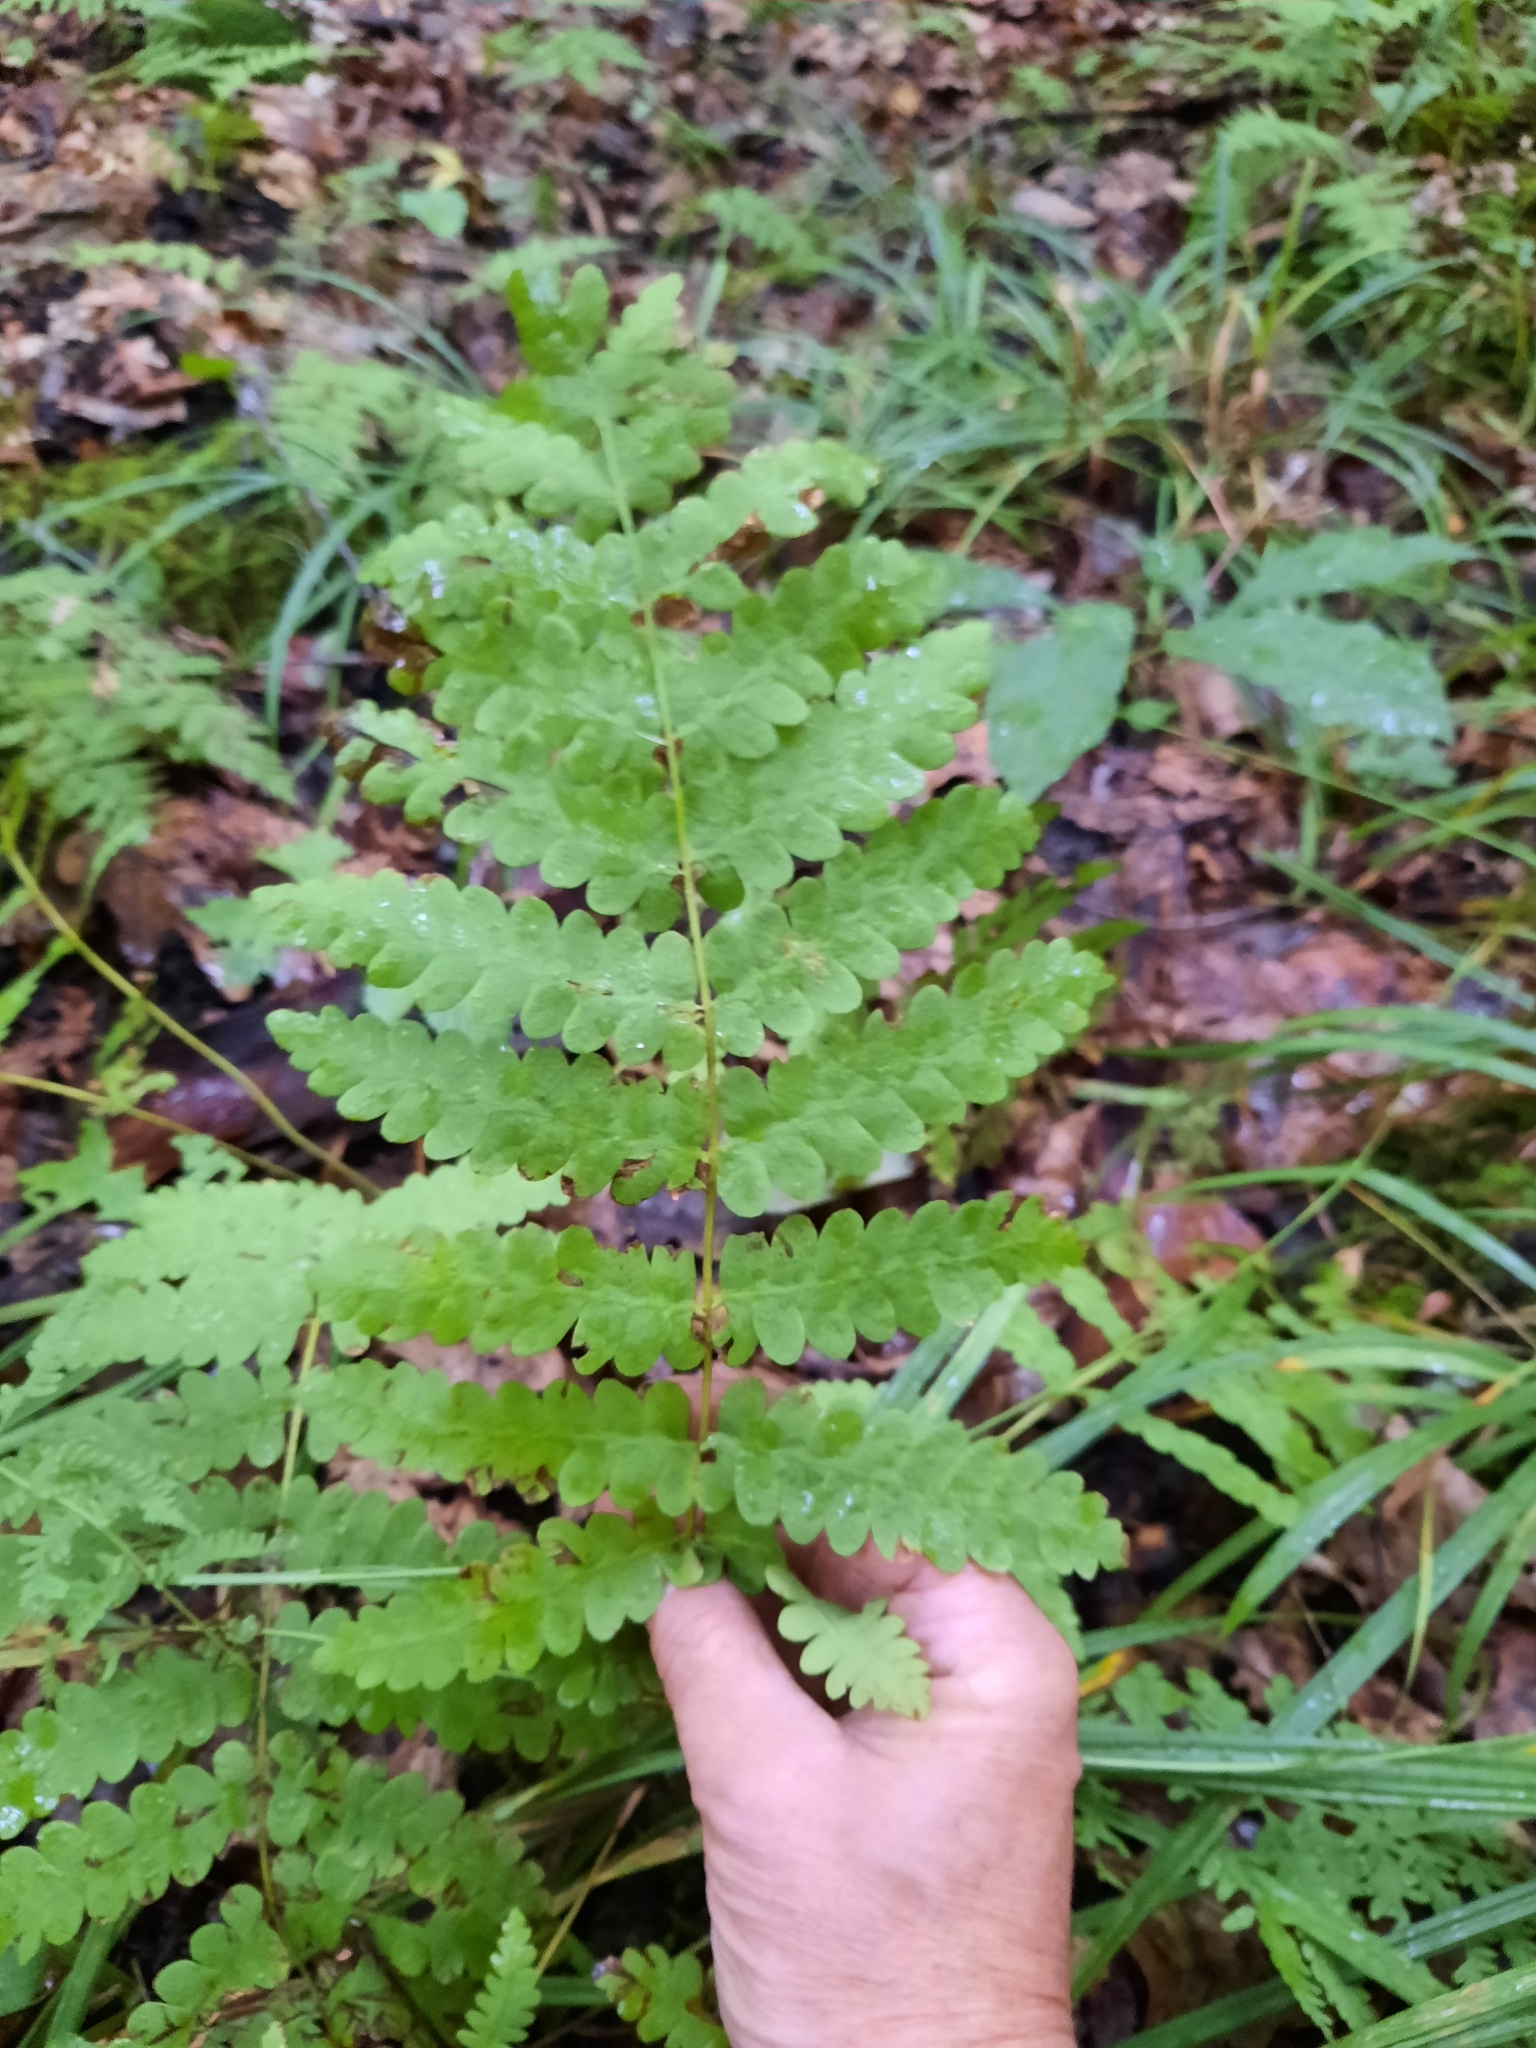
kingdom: Plantae
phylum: Tracheophyta
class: Polypodiopsida
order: Osmundales
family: Osmundaceae
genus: Claytosmunda
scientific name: Claytosmunda claytoniana
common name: Clayton's fern
